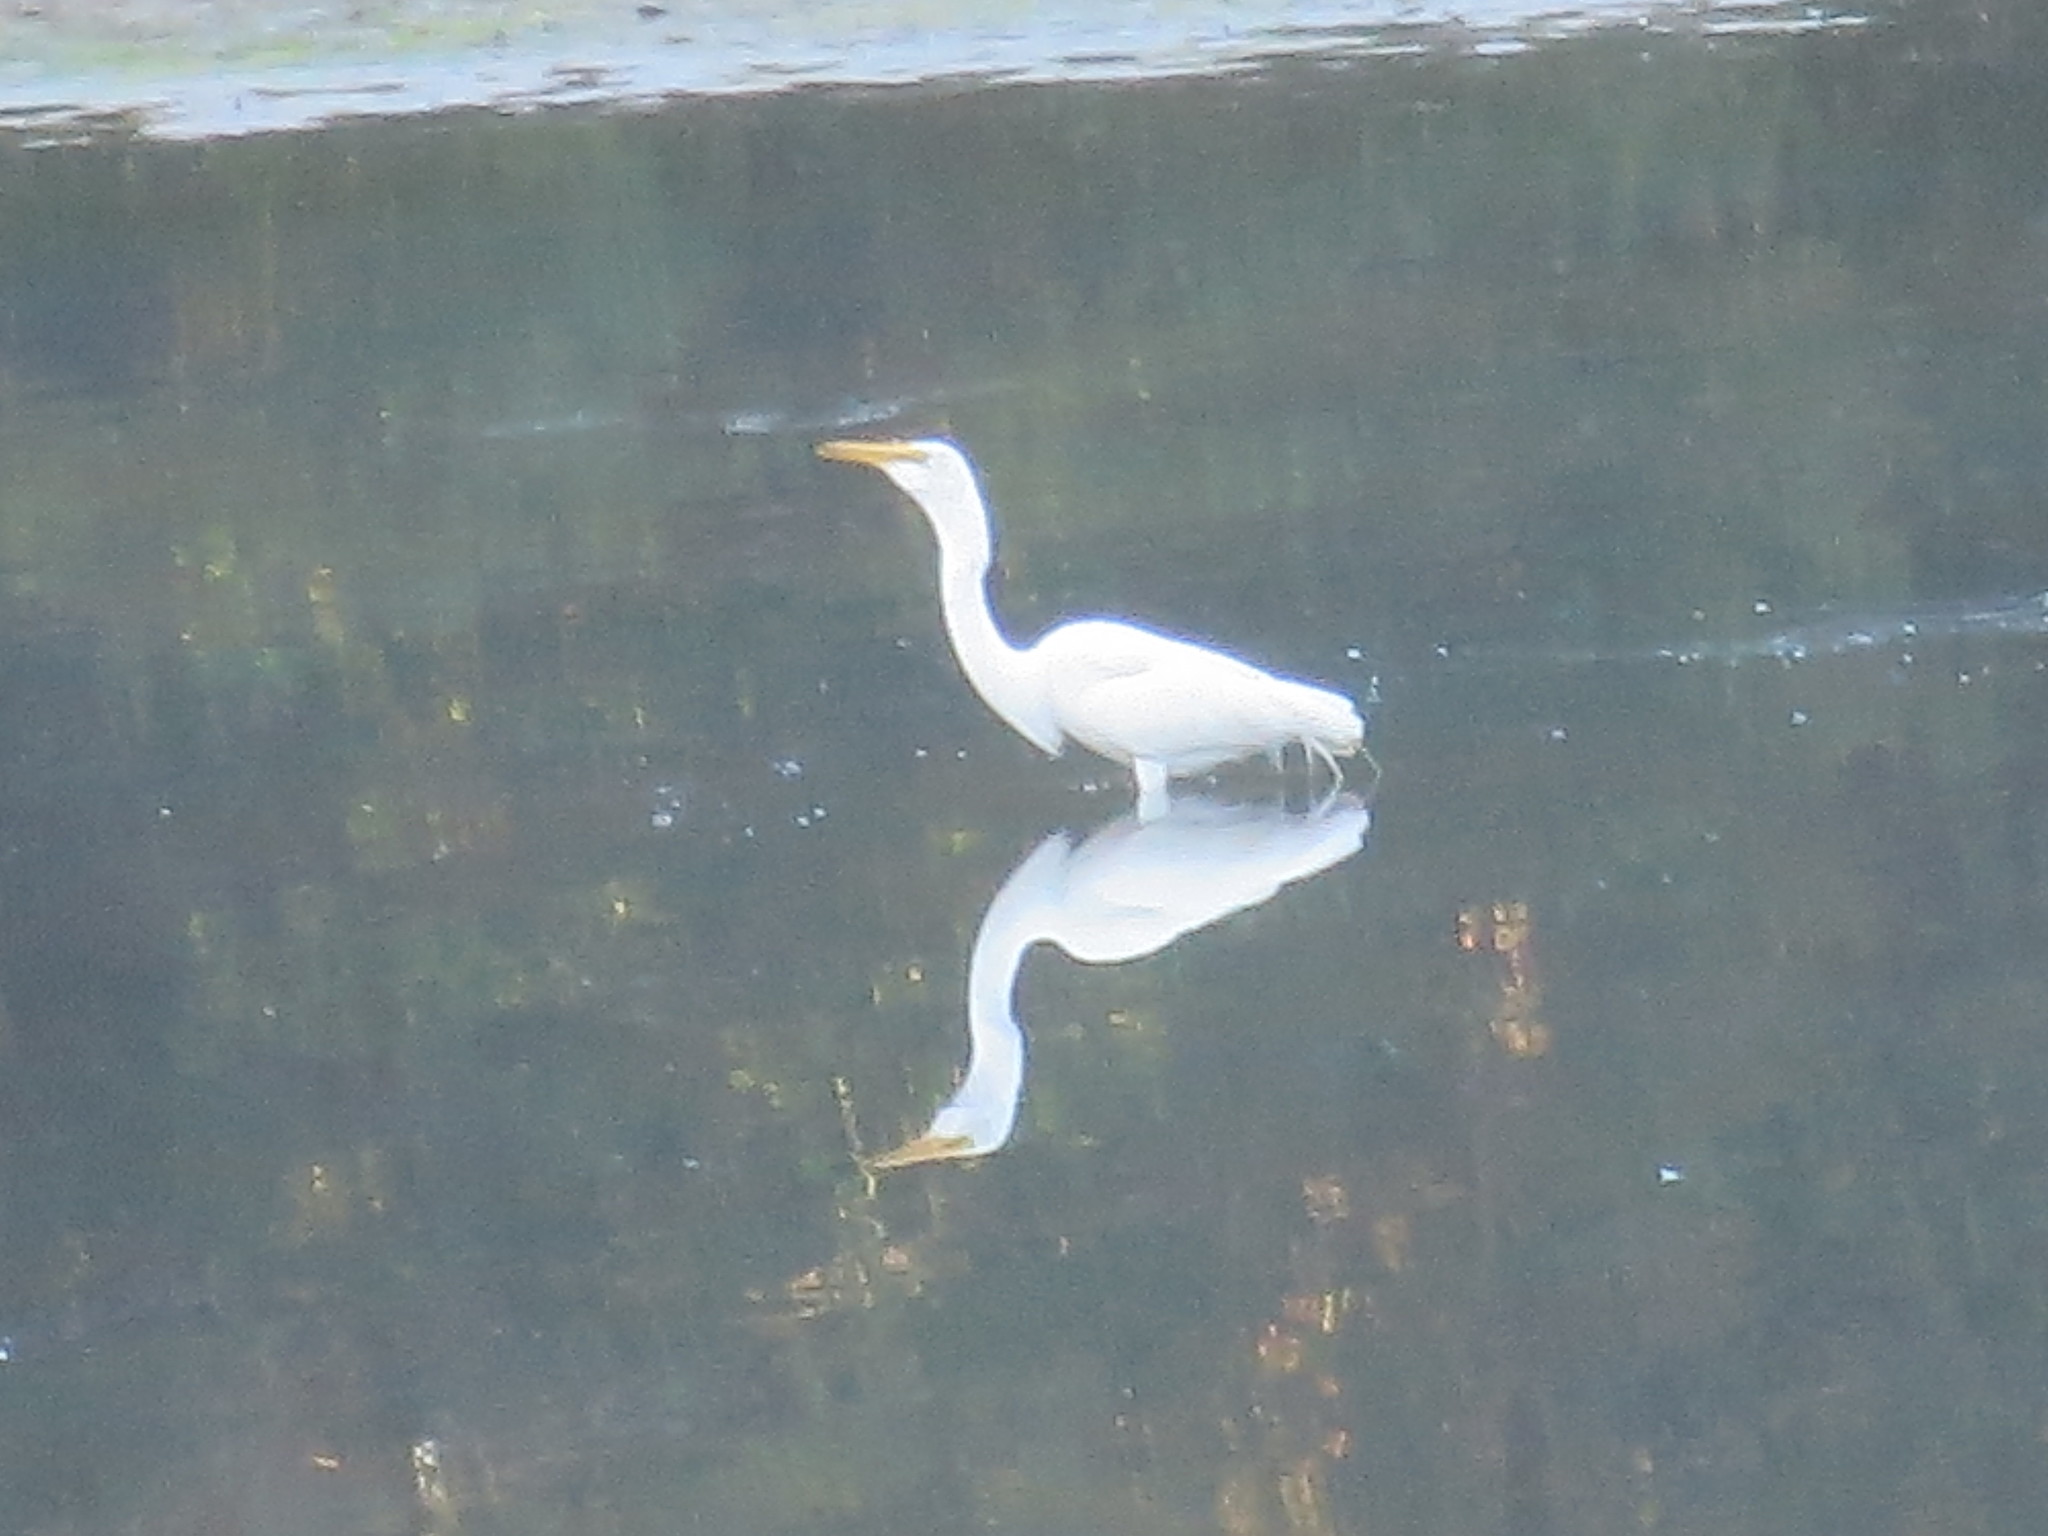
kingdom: Animalia
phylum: Chordata
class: Aves
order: Pelecaniformes
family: Ardeidae
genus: Ardea
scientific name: Ardea alba
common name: Great egret
